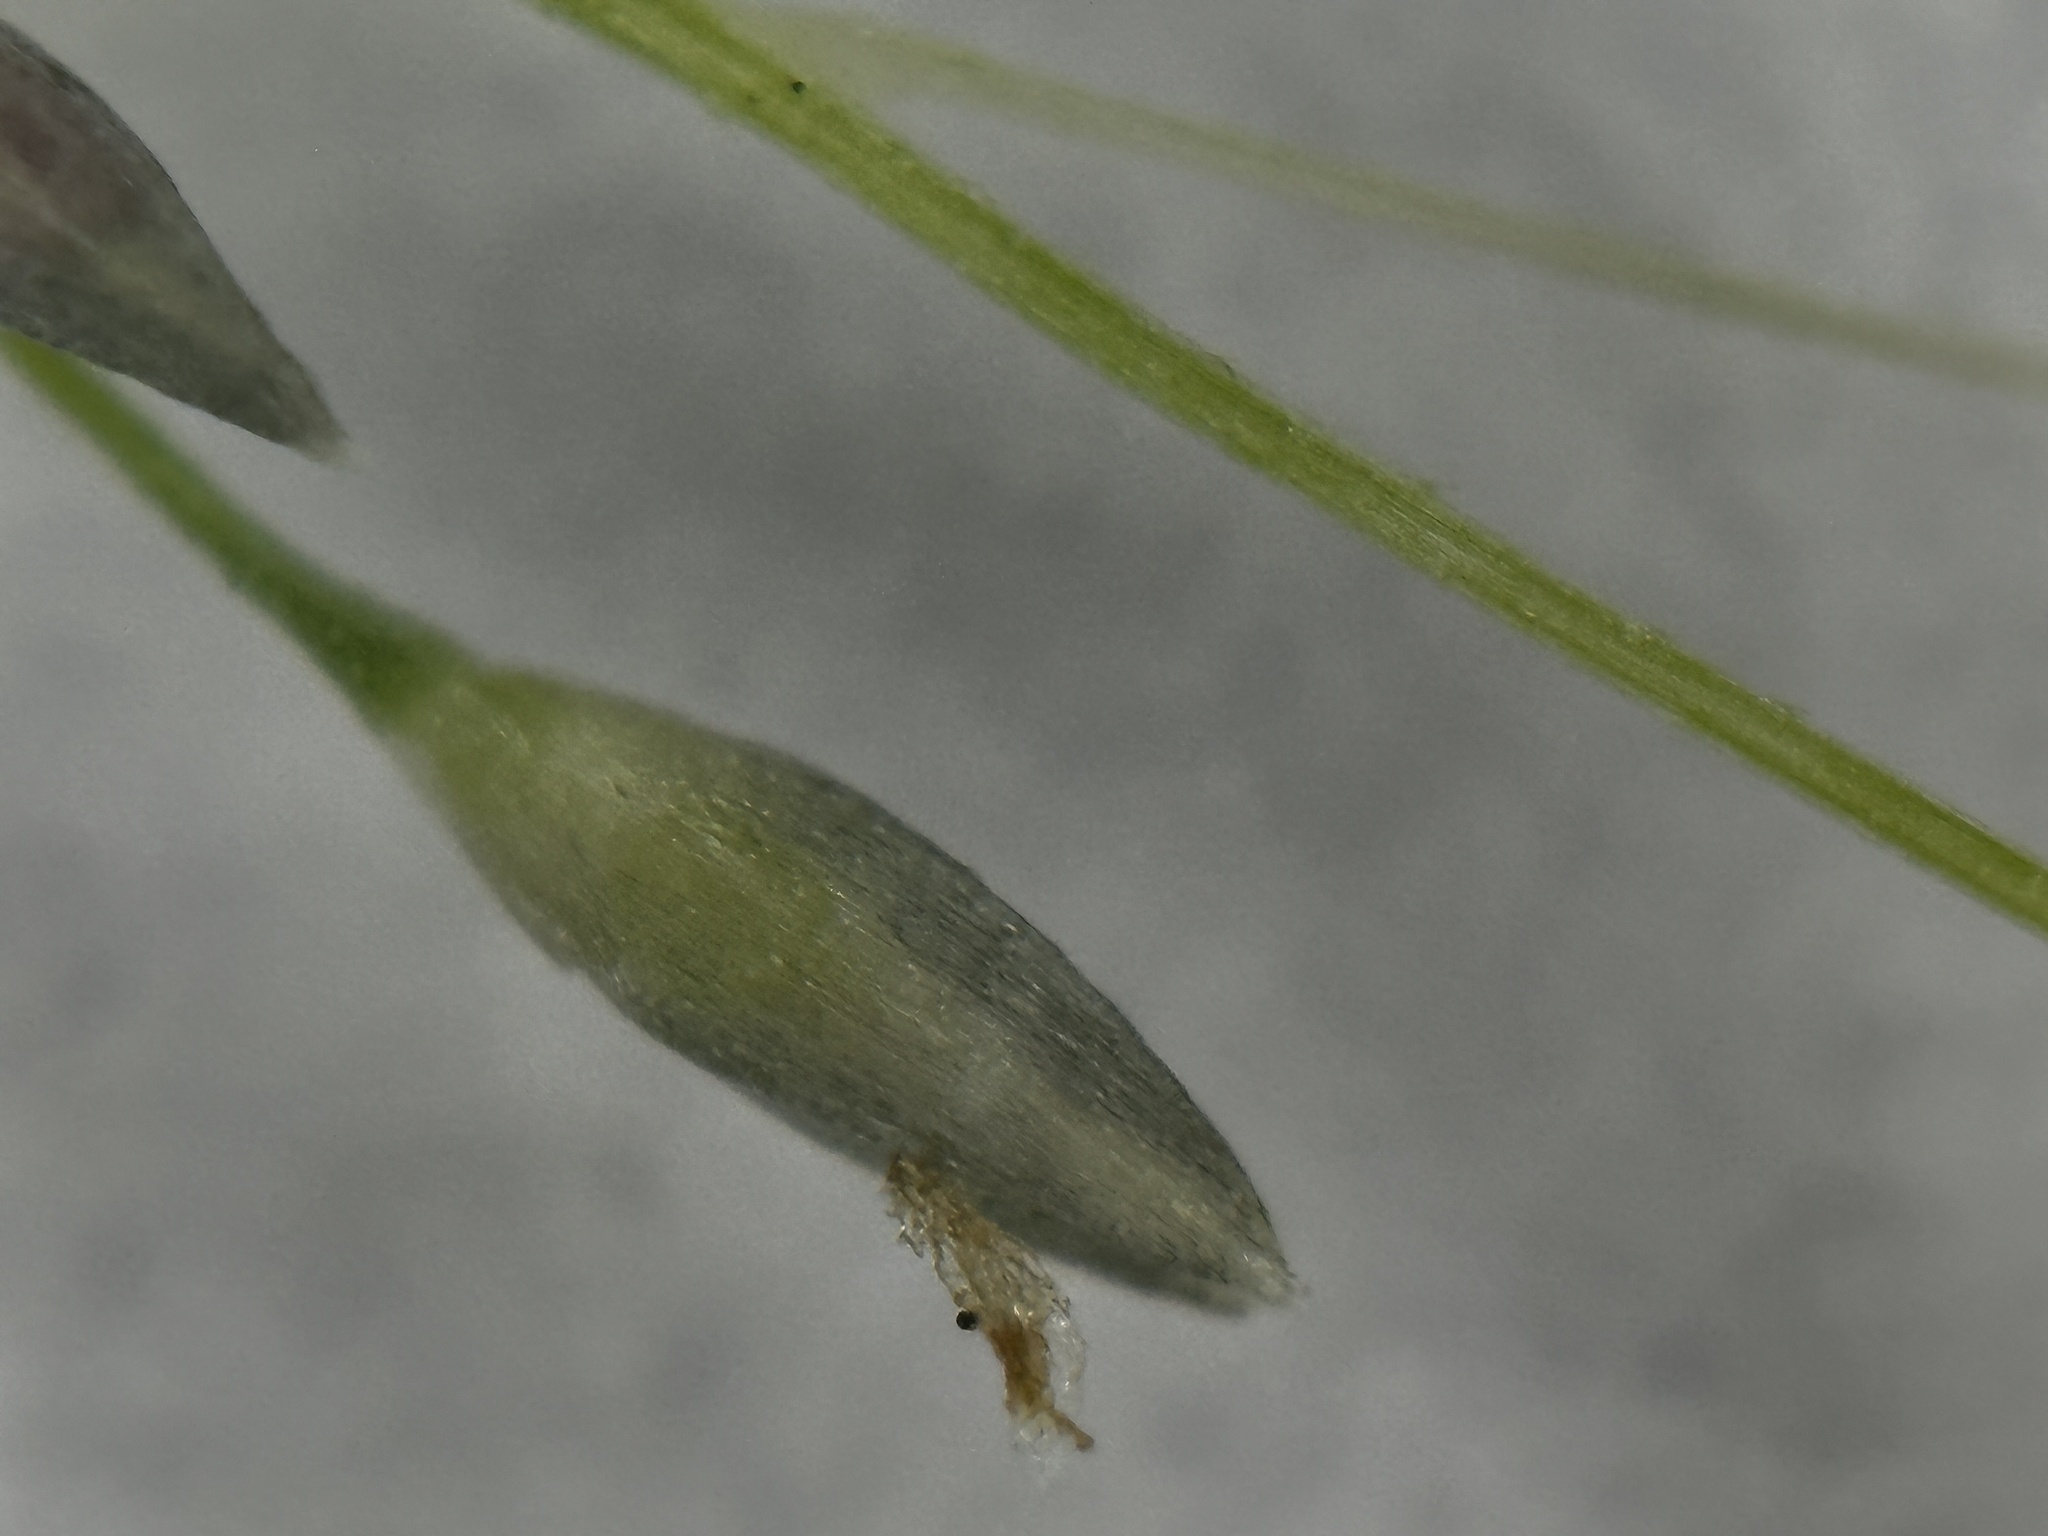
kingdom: Plantae
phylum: Tracheophyta
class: Liliopsida
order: Poales
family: Poaceae
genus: Sporobolus
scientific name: Sporobolus tenuissimus
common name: Tropical dropseed
